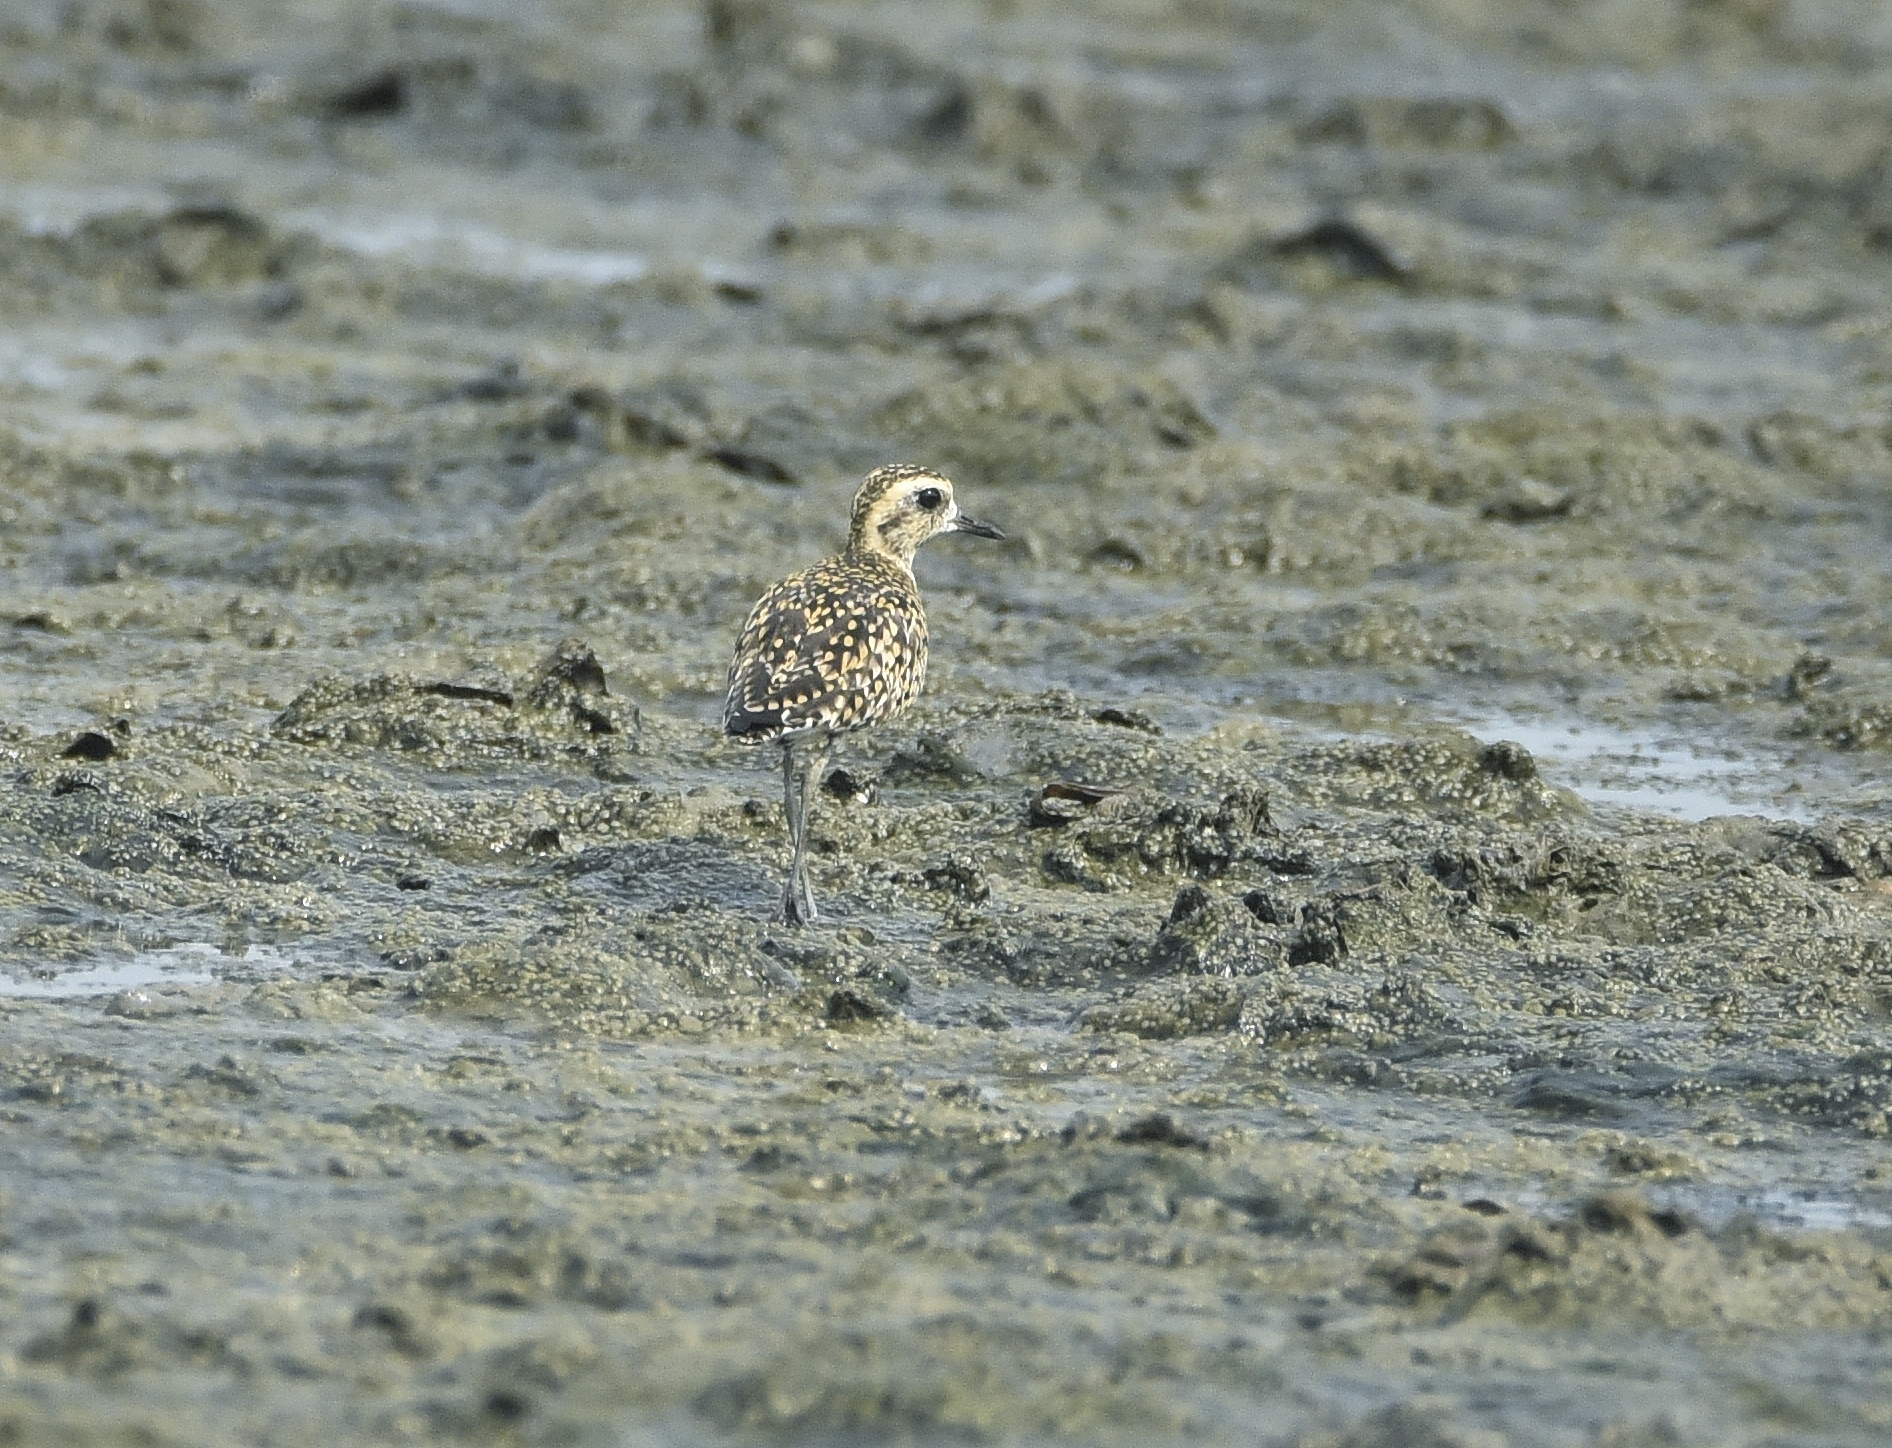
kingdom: Animalia
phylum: Chordata
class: Aves
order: Charadriiformes
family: Charadriidae
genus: Pluvialis
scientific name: Pluvialis fulva
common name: Pacific golden plover
